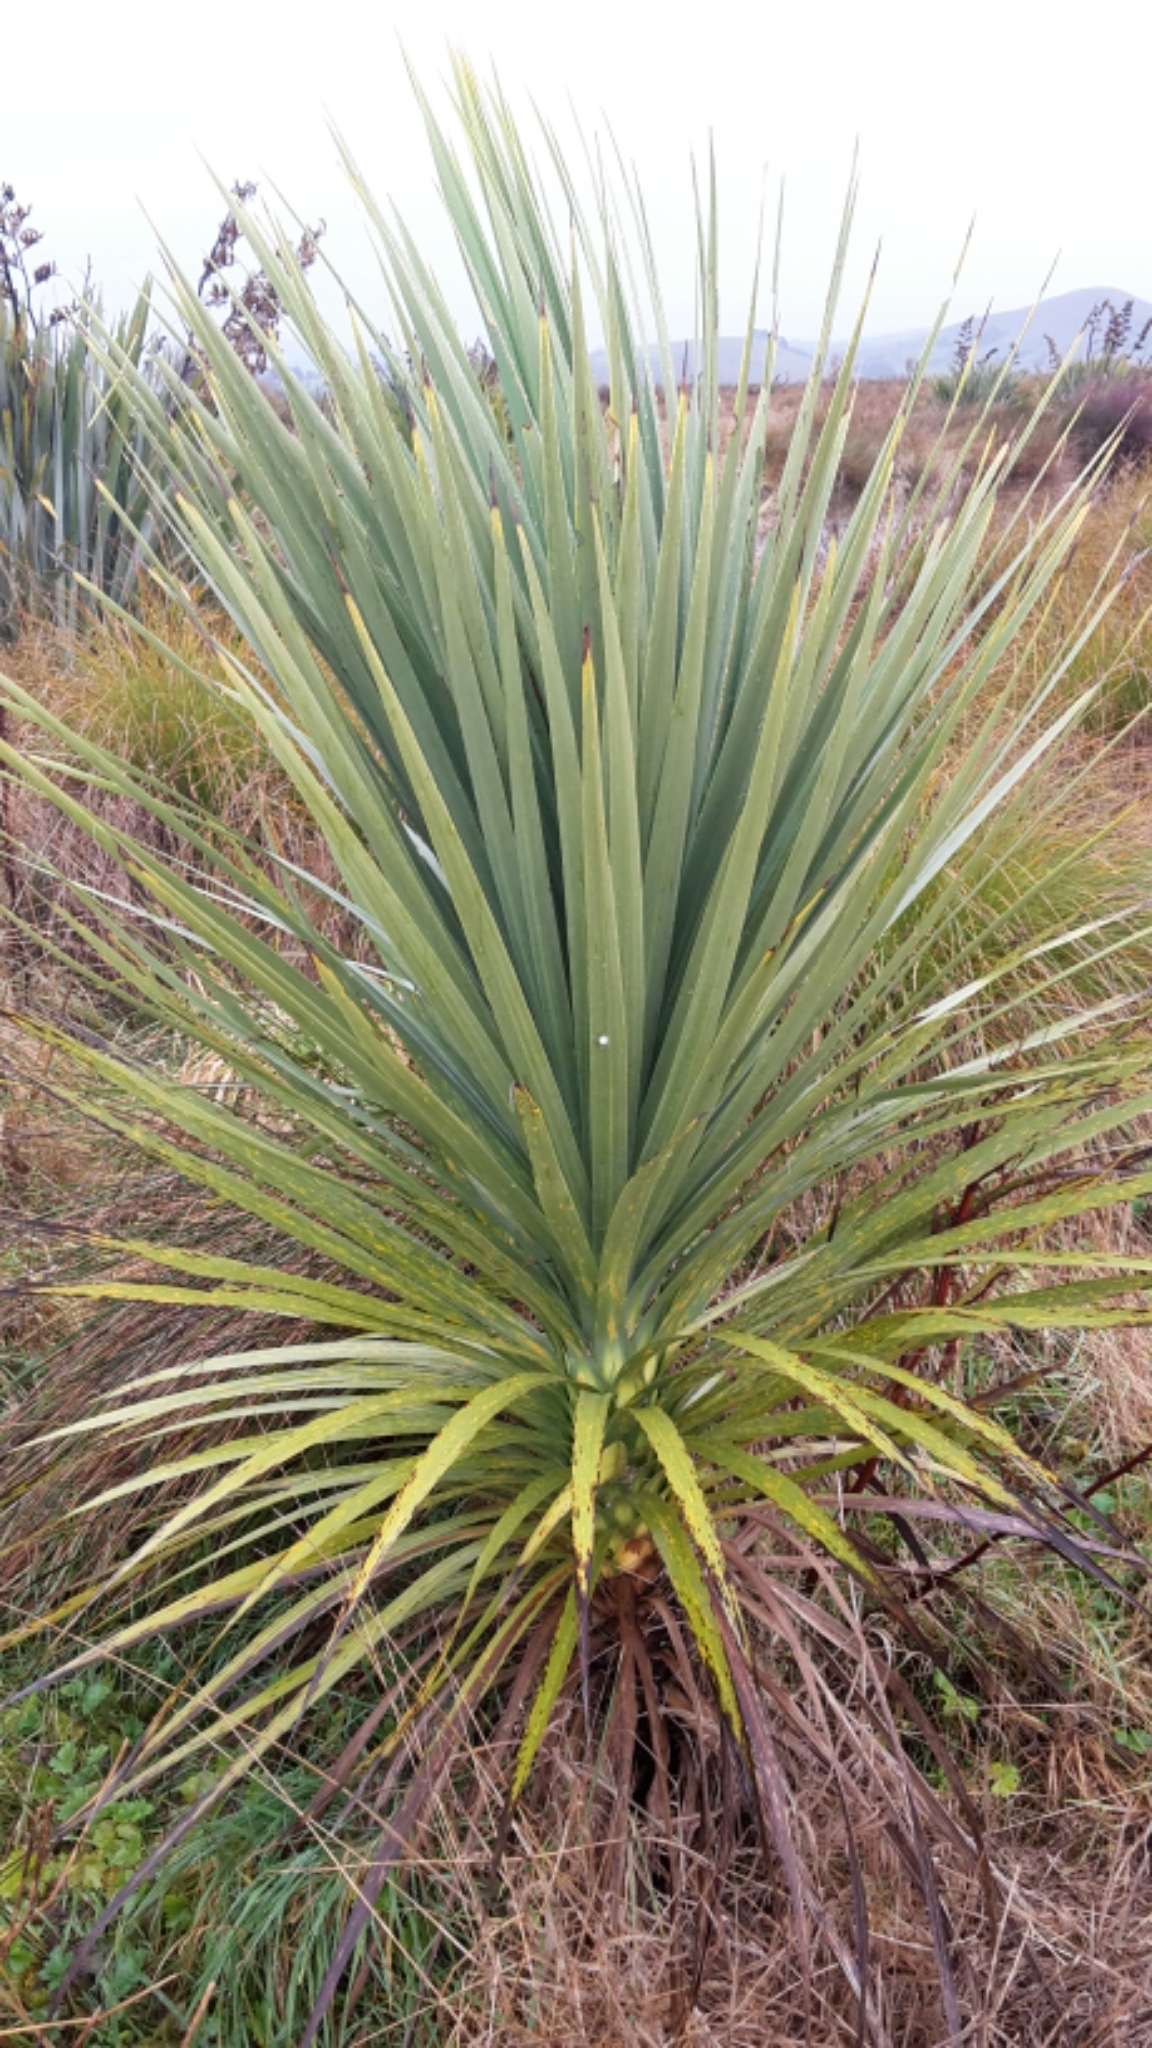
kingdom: Plantae
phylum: Tracheophyta
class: Liliopsida
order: Asparagales
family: Asparagaceae
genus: Cordyline
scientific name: Cordyline australis
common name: Cabbage-palm
